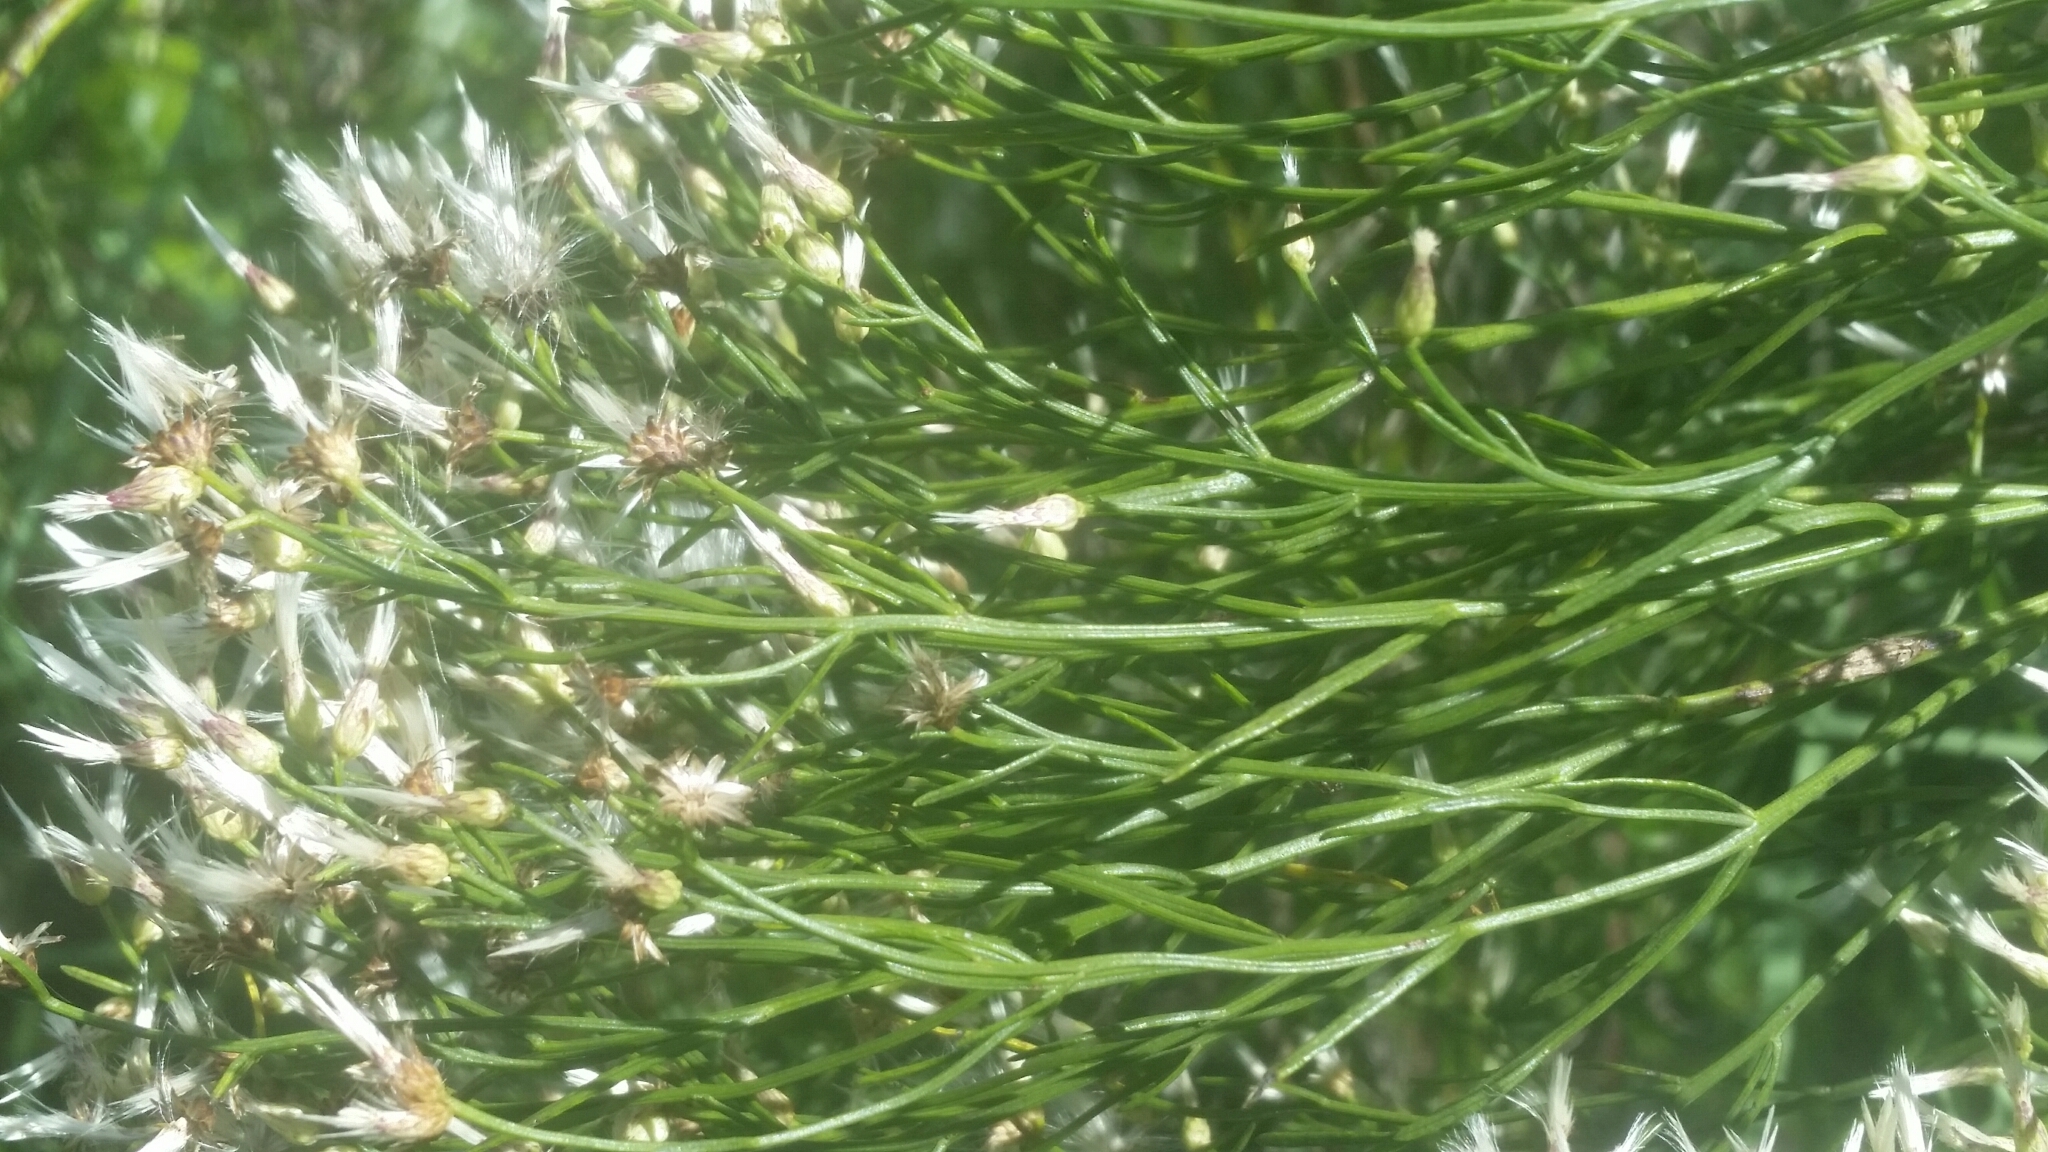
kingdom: Plantae
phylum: Tracheophyta
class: Magnoliopsida
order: Asterales
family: Asteraceae
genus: Baccharis
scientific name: Baccharis angustifolia
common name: Narrow-leaf baccharis
